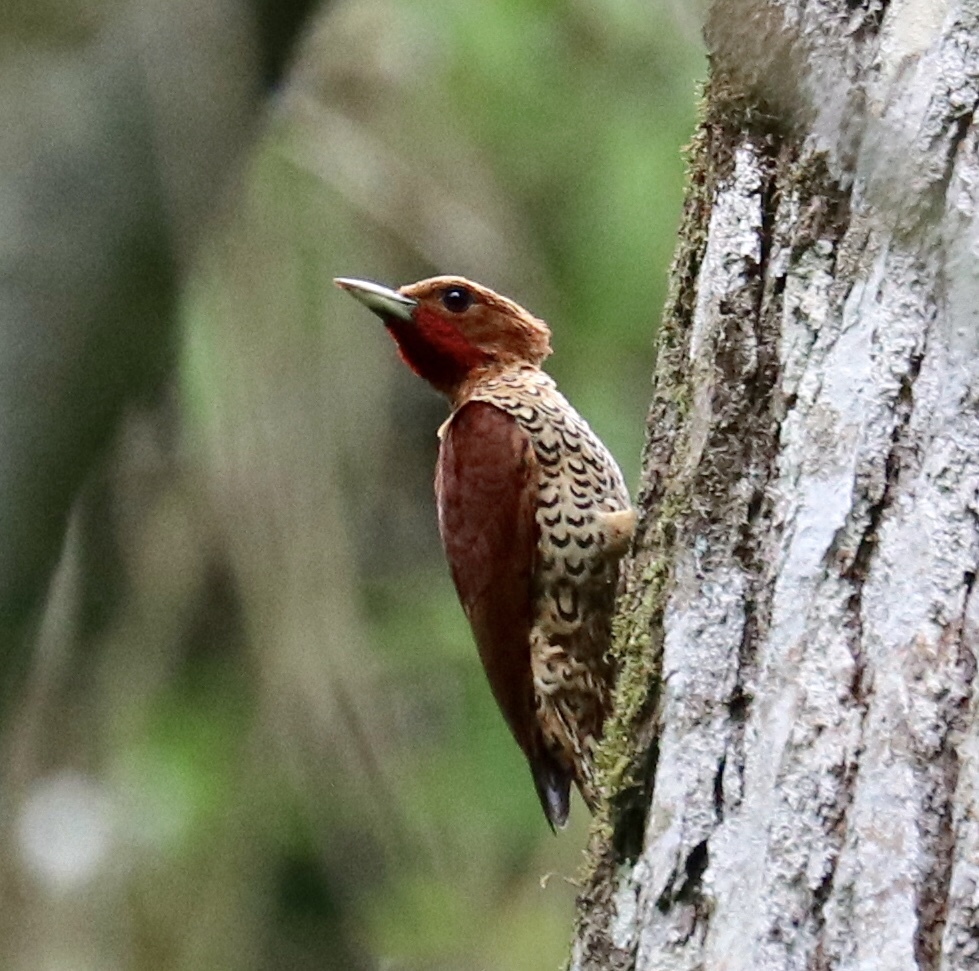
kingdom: Animalia
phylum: Chordata
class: Aves
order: Piciformes
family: Picidae
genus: Celeus
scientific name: Celeus loricatus
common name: Cinnamon woodpecker
